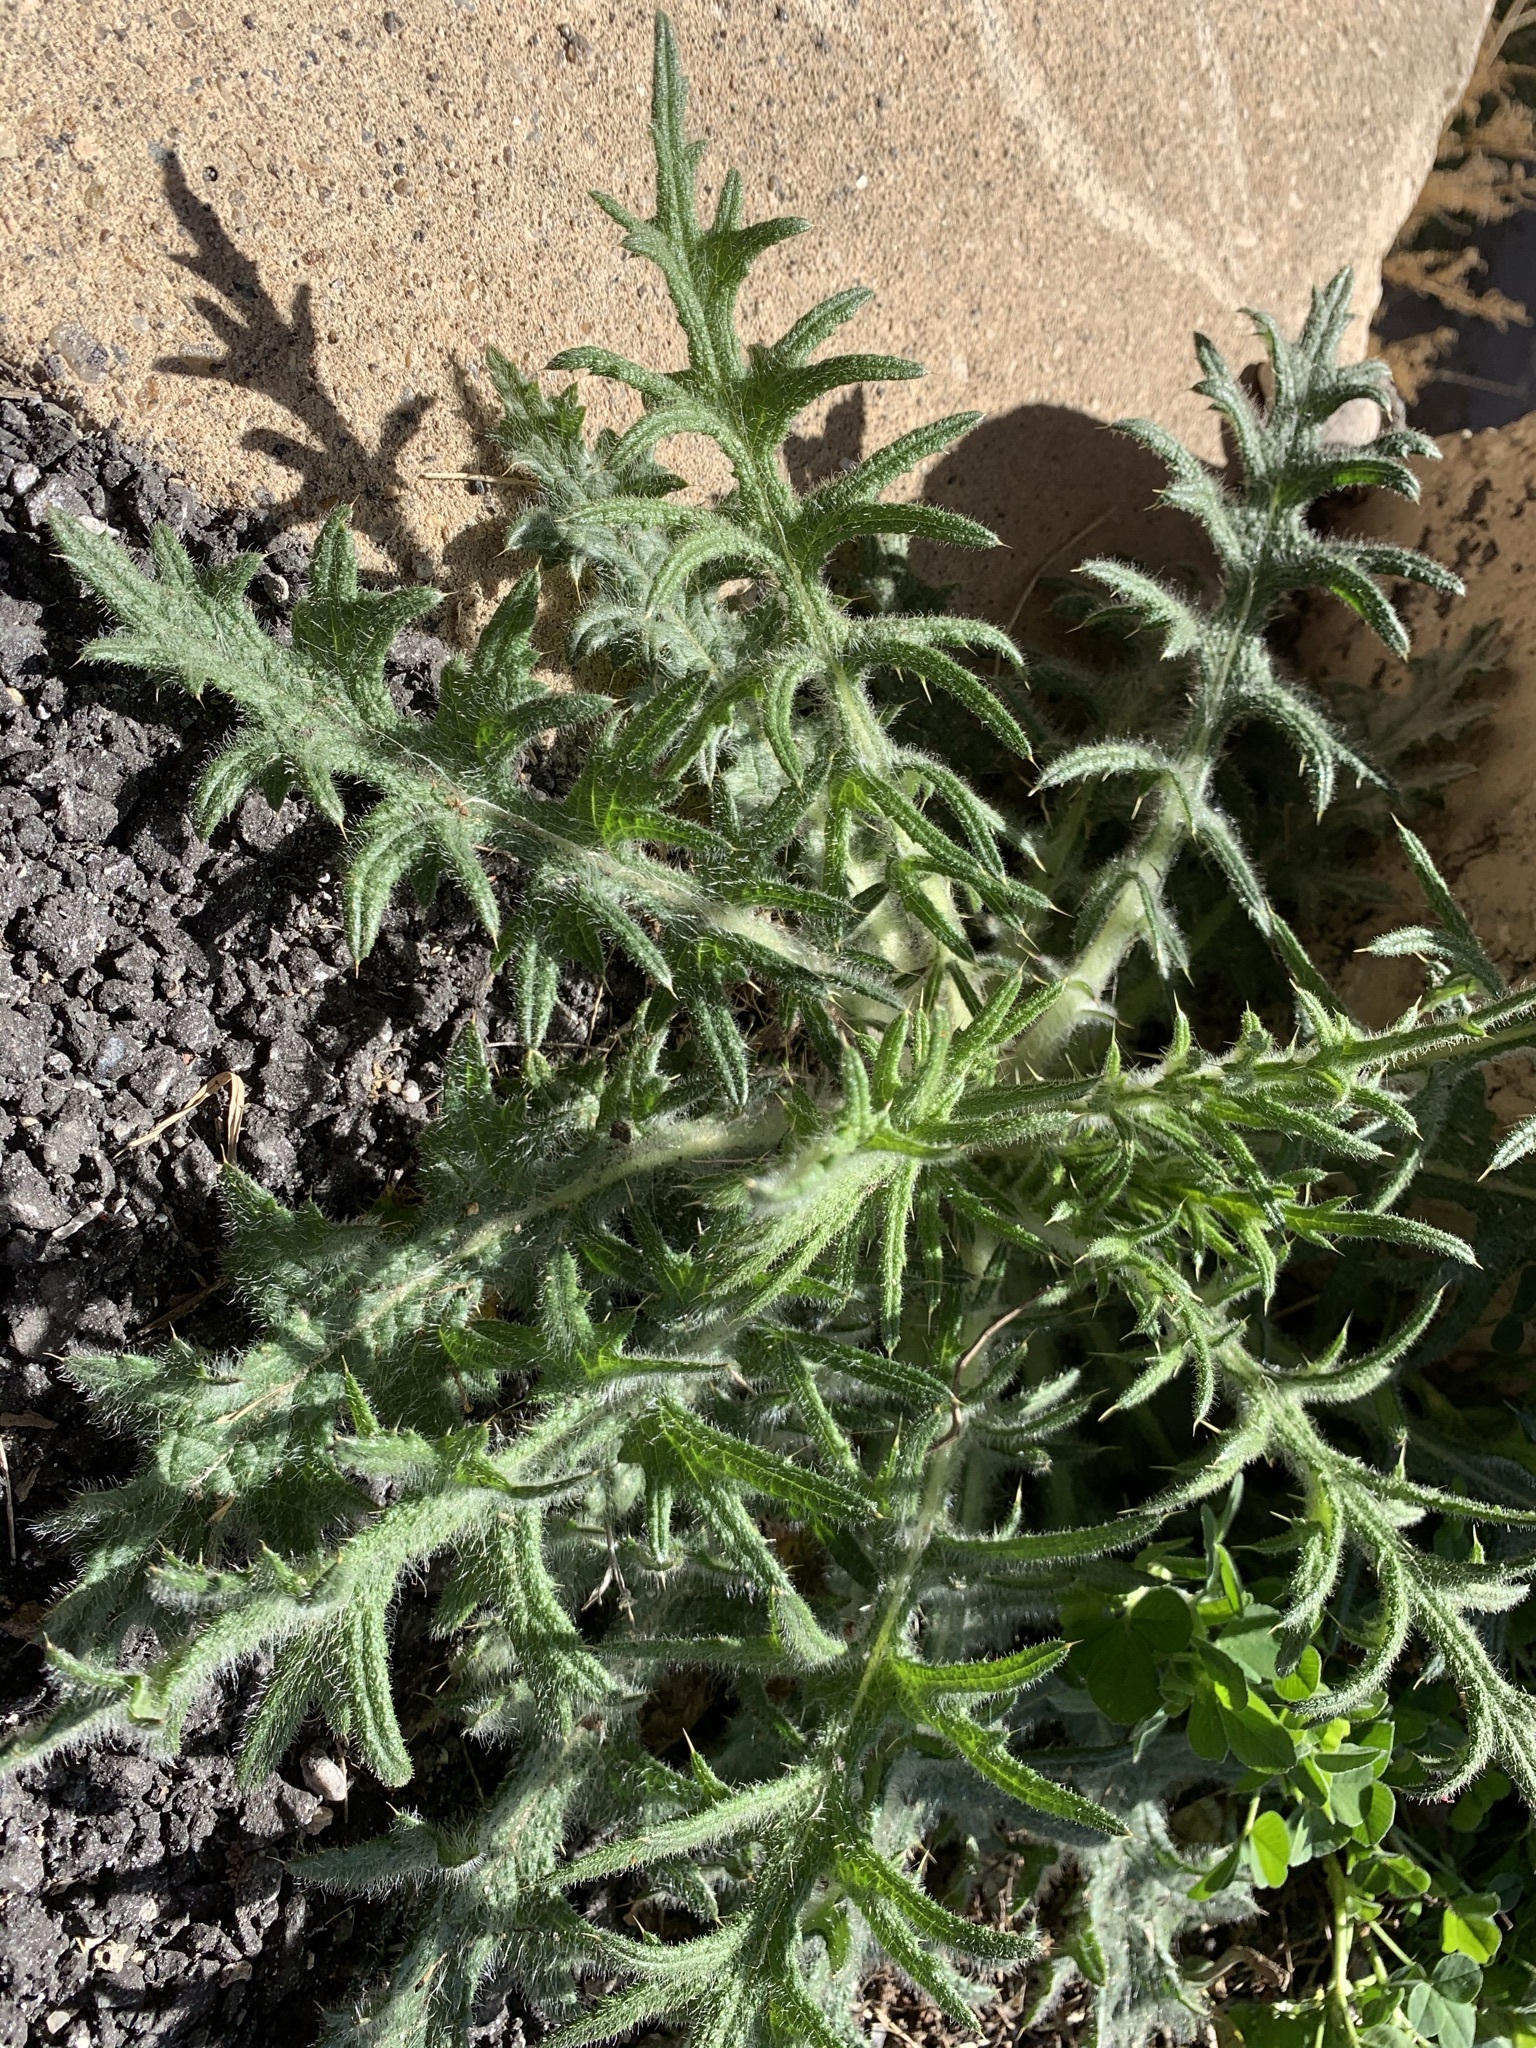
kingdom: Plantae
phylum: Tracheophyta
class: Magnoliopsida
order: Asterales
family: Asteraceae
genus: Cirsium
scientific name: Cirsium vulgare
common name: Bull thistle
